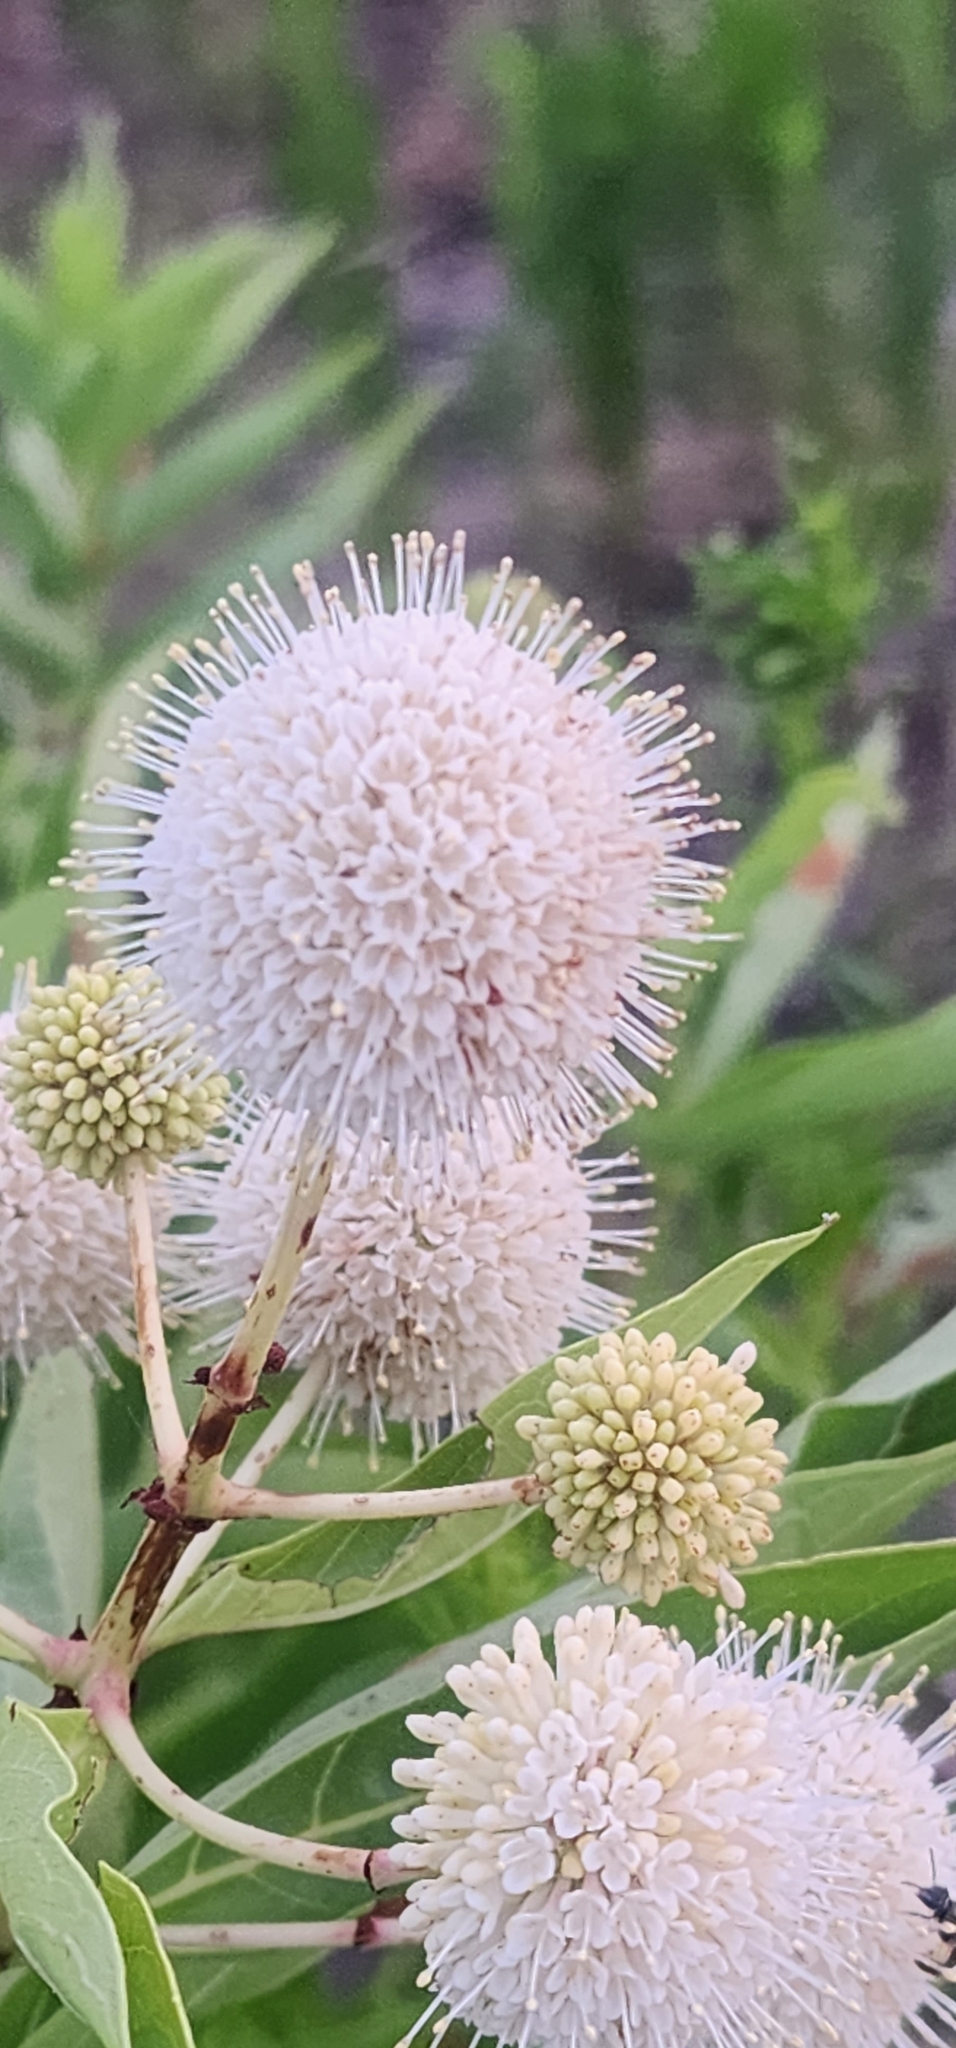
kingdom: Plantae
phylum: Tracheophyta
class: Magnoliopsida
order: Gentianales
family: Rubiaceae
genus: Cephalanthus
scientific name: Cephalanthus occidentalis
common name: Button-willow
